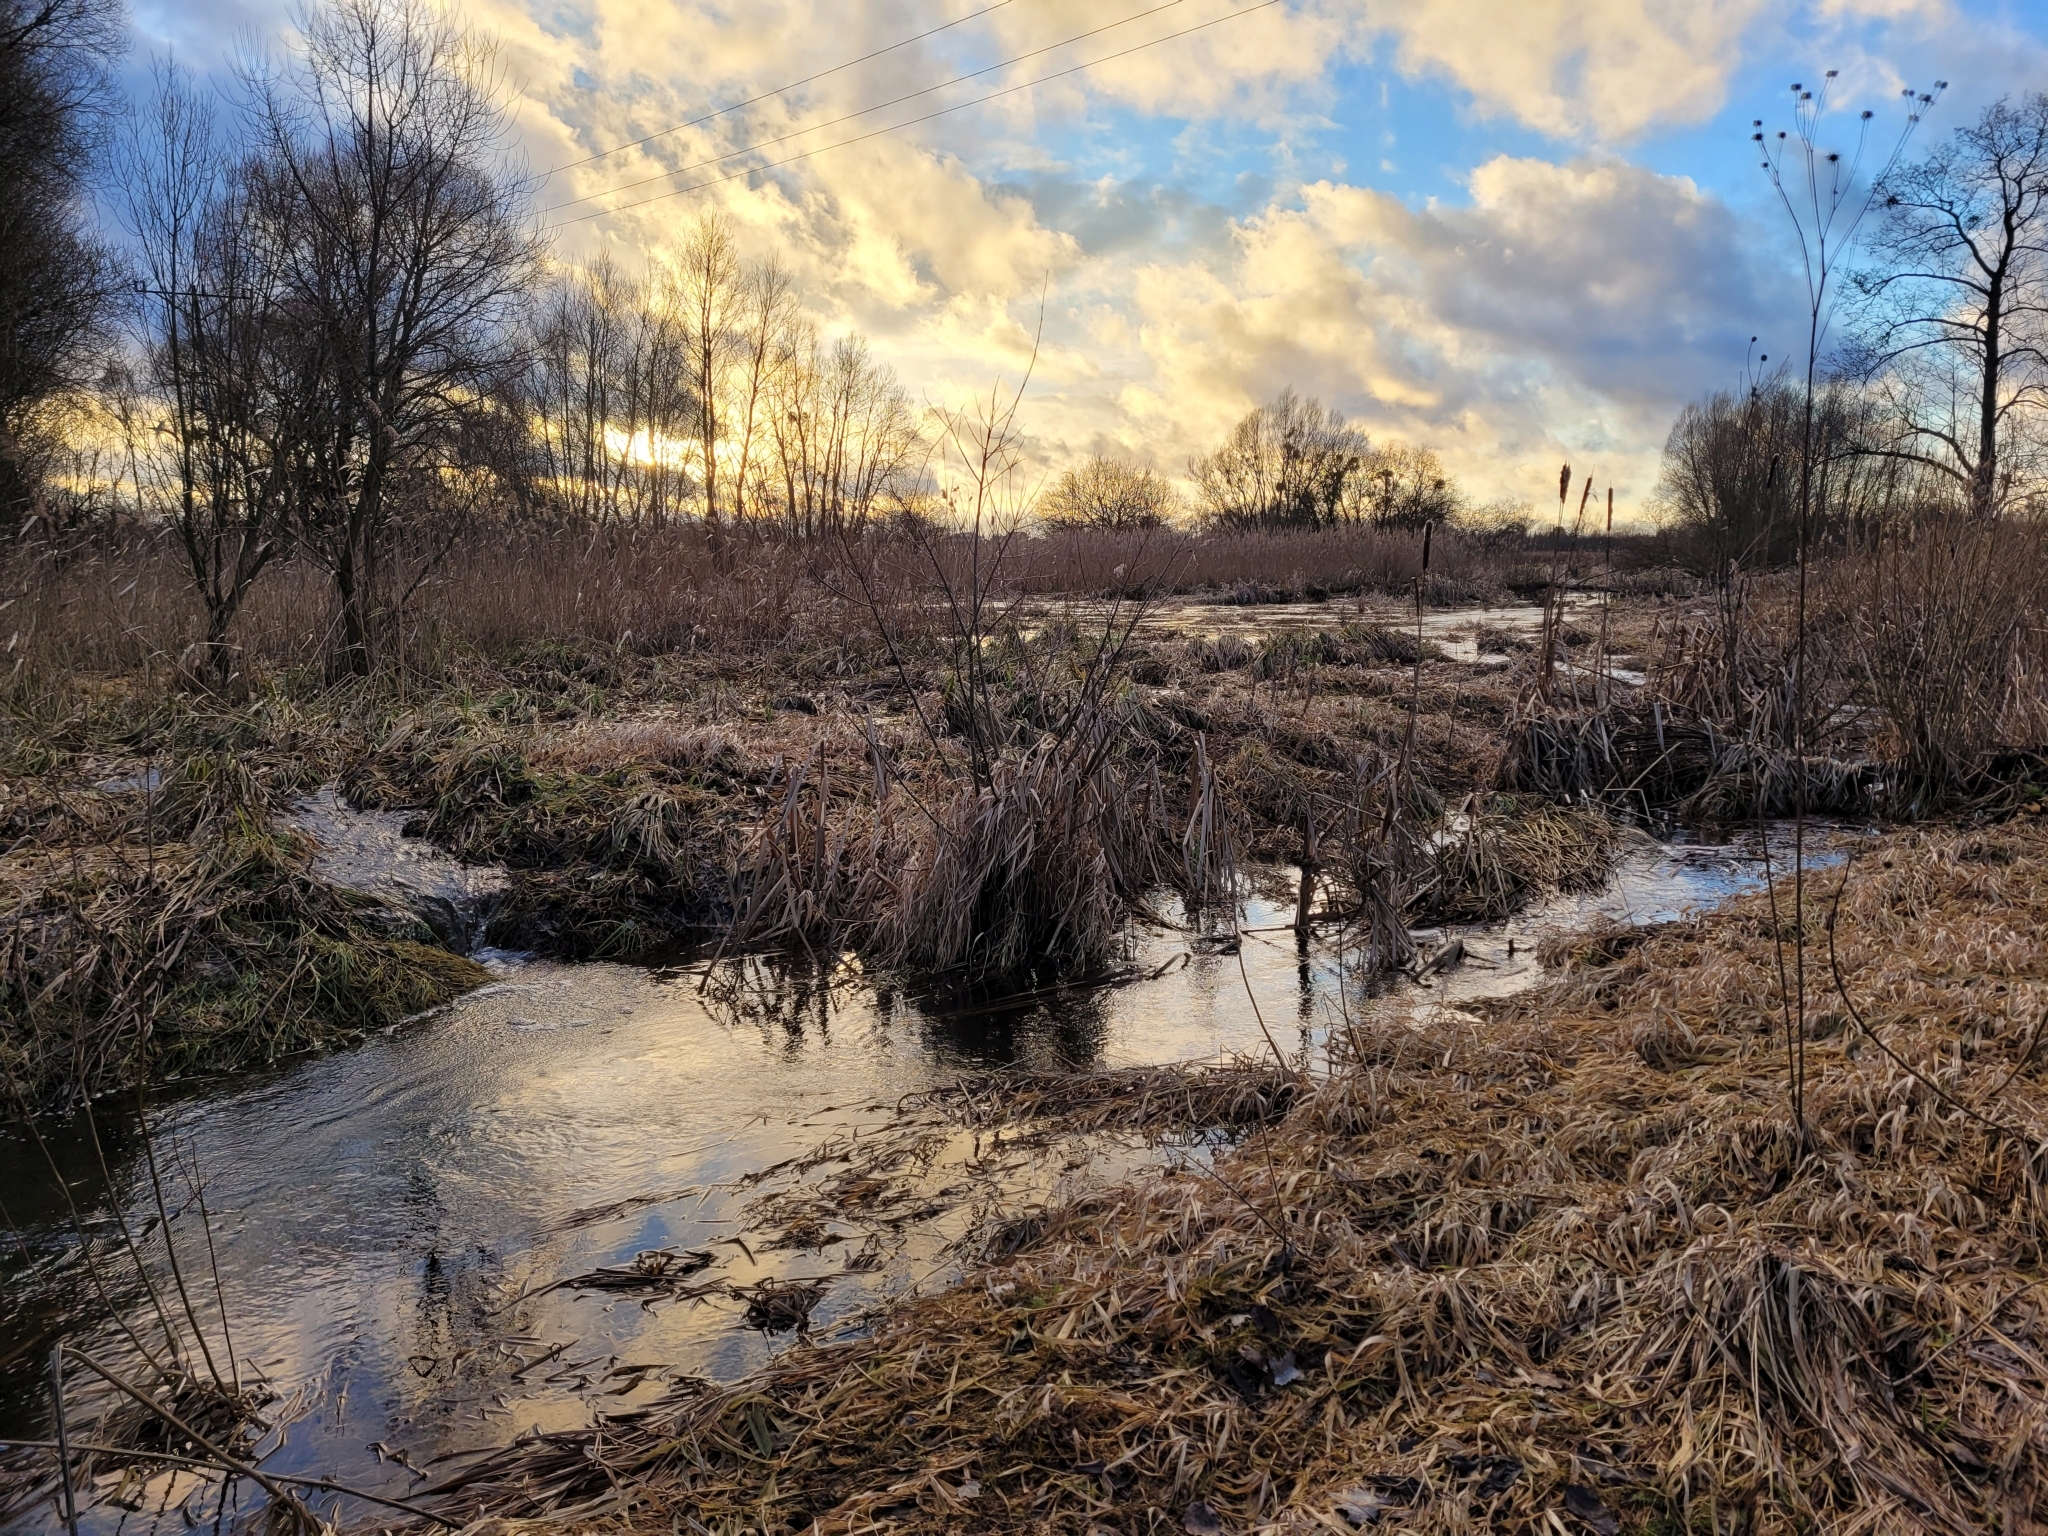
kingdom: Animalia
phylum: Chordata
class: Mammalia
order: Rodentia
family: Castoridae
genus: Castor
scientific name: Castor fiber
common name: Eurasian beaver
